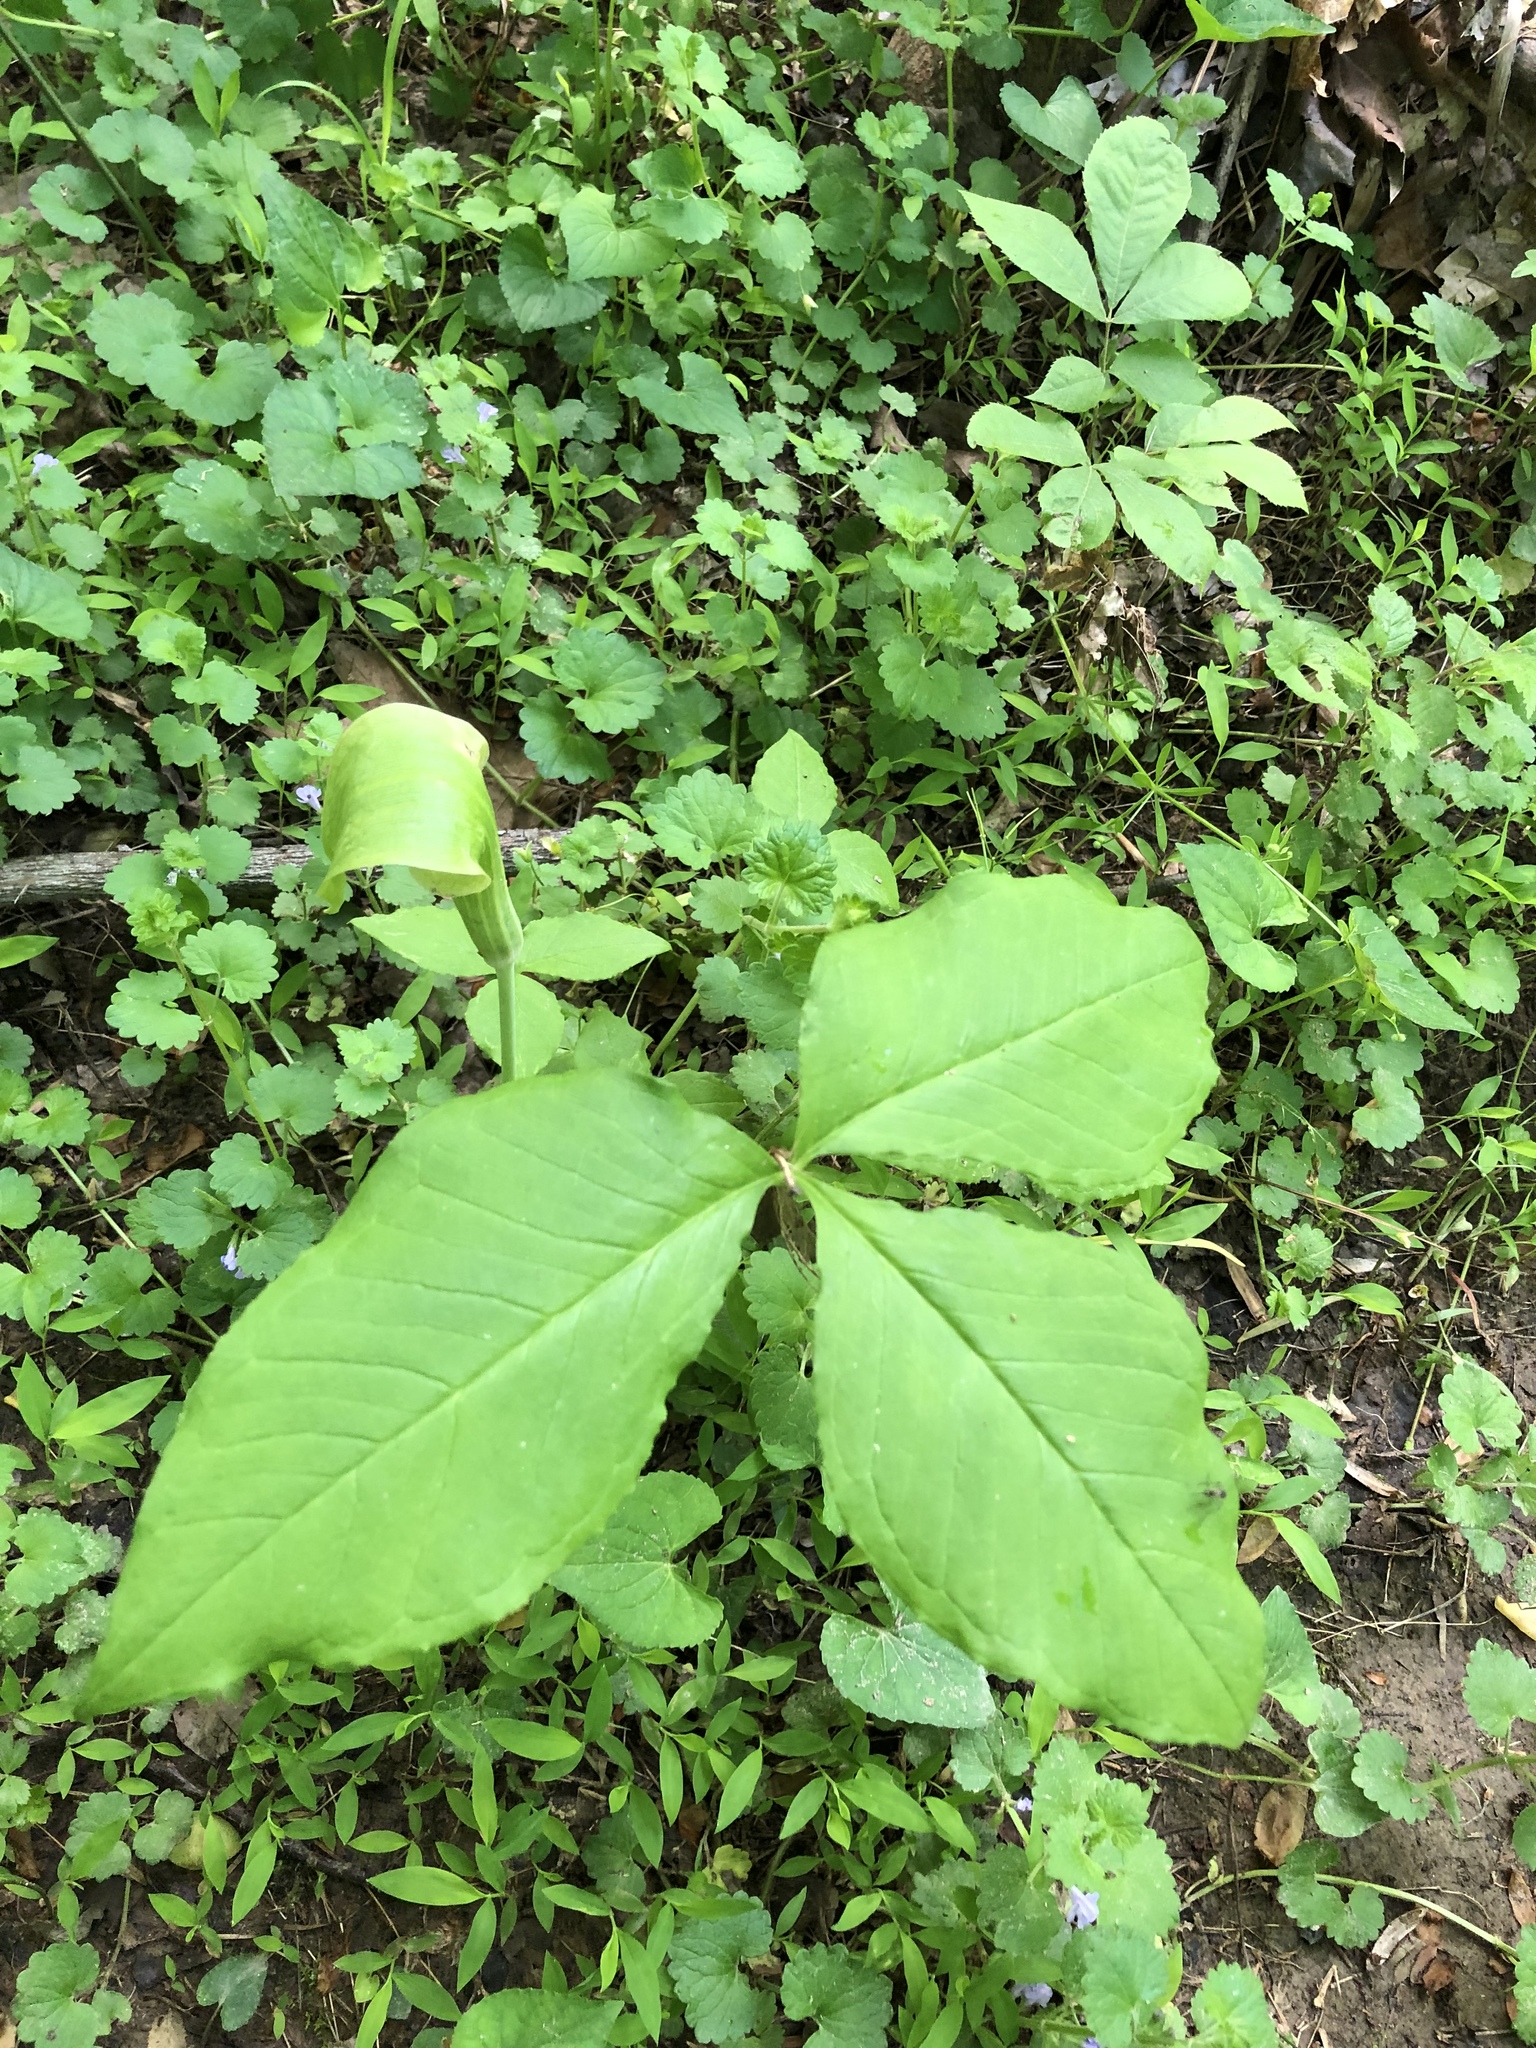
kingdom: Plantae
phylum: Tracheophyta
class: Liliopsida
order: Alismatales
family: Araceae
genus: Arisaema
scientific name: Arisaema triphyllum
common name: Jack-in-the-pulpit
